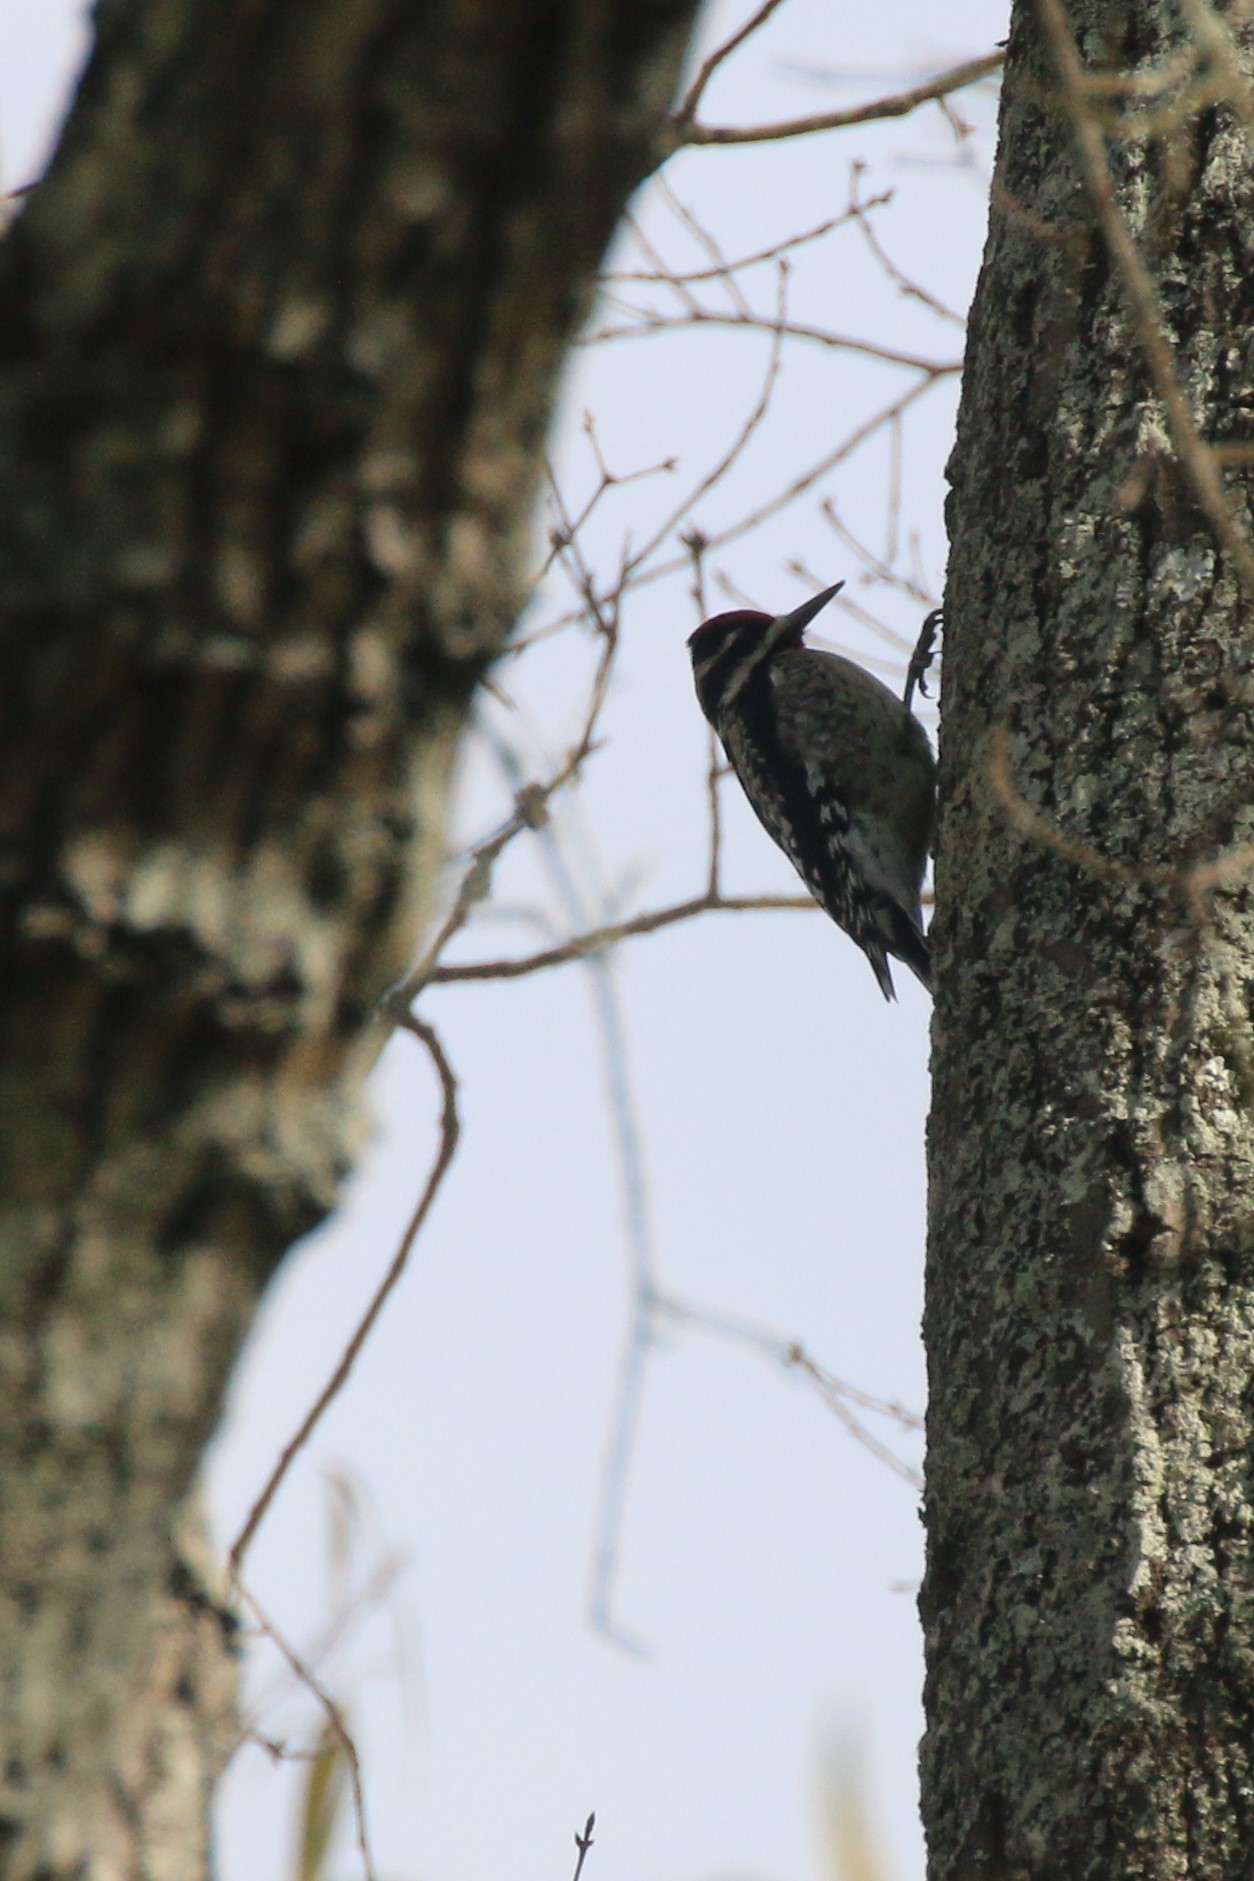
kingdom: Animalia
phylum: Chordata
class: Aves
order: Piciformes
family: Picidae
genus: Sphyrapicus
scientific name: Sphyrapicus varius
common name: Yellow-bellied sapsucker
